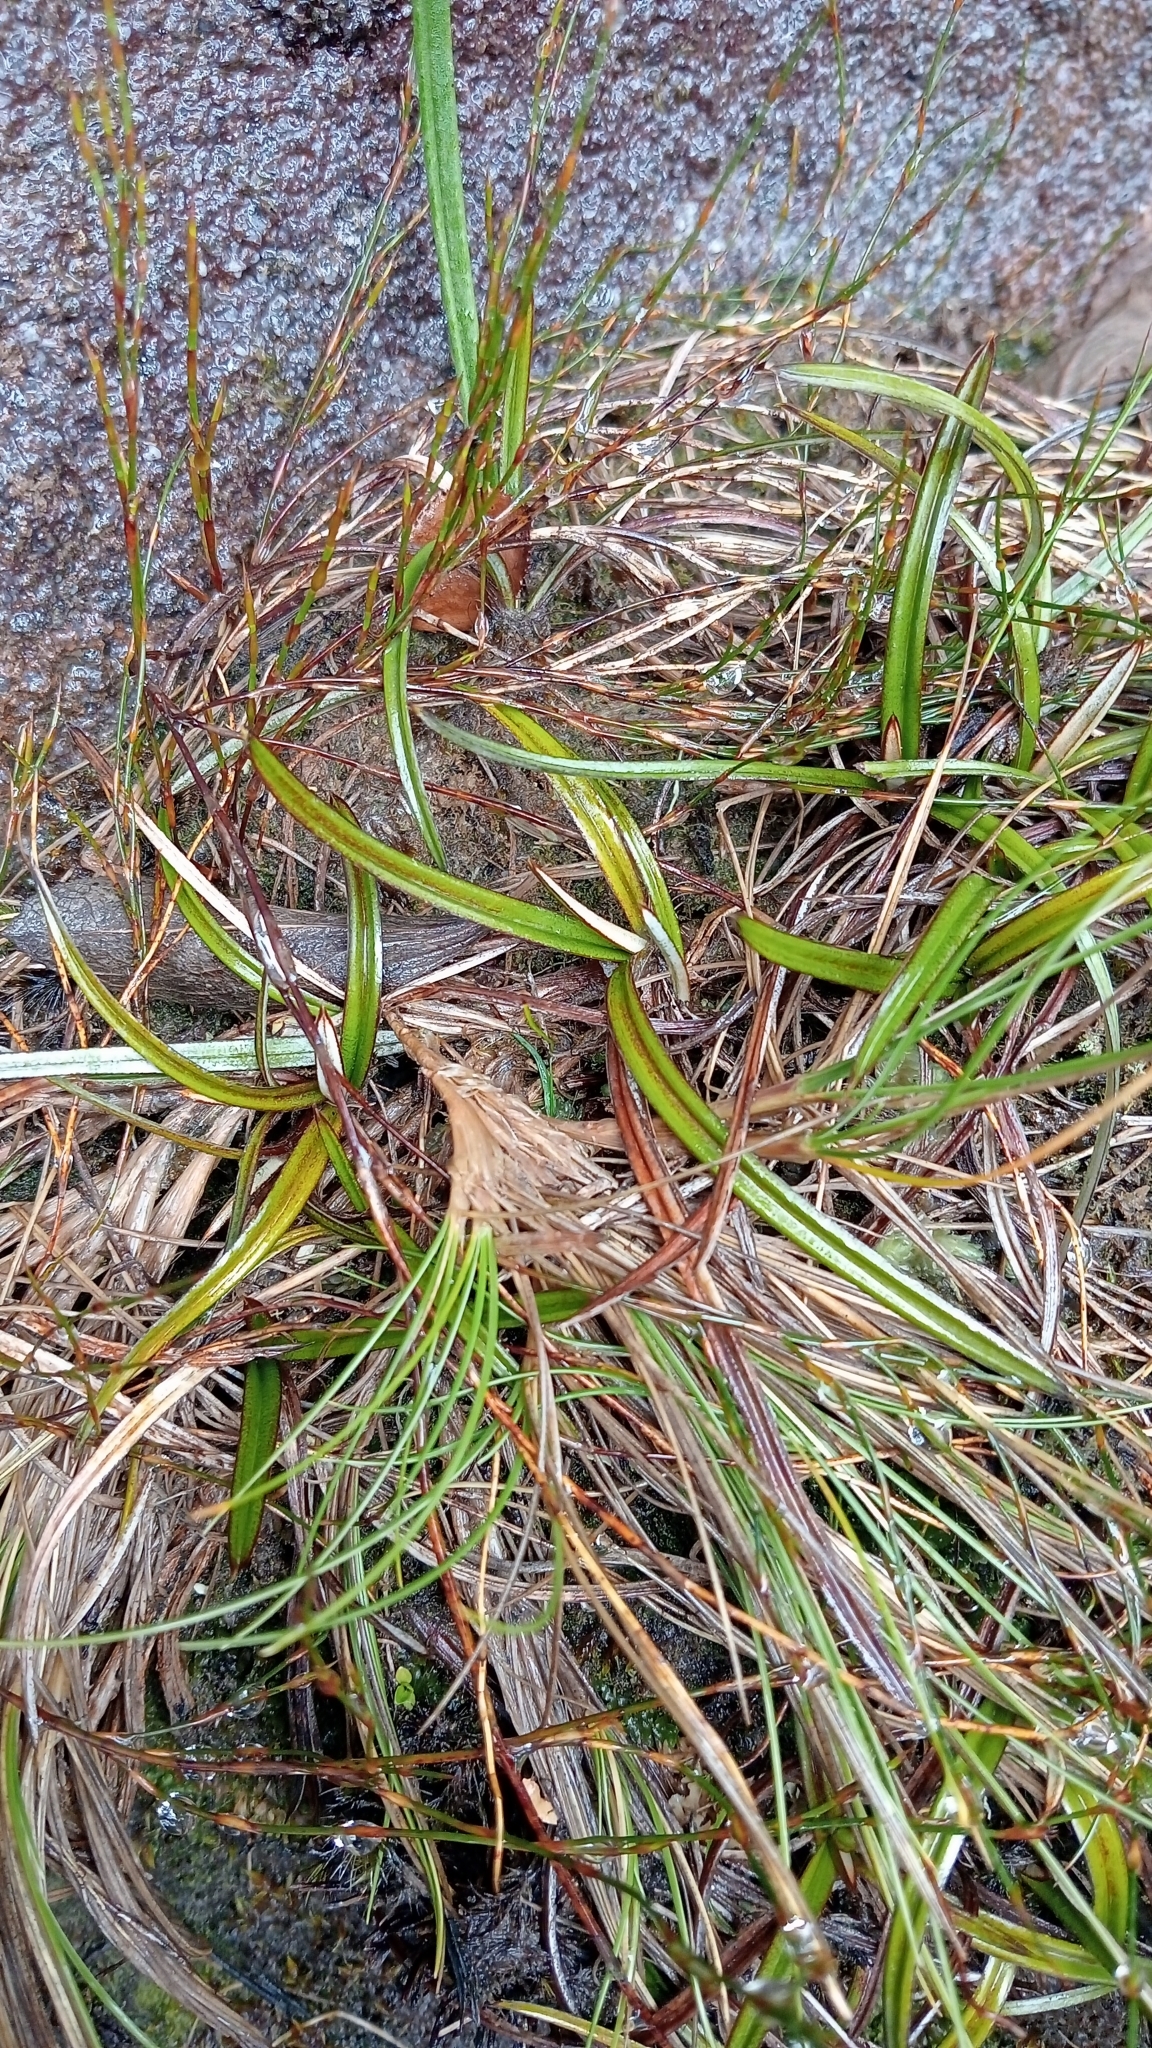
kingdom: Plantae
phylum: Tracheophyta
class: Liliopsida
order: Asparagales
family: Asteliaceae
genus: Astelia
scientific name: Astelia linearis
